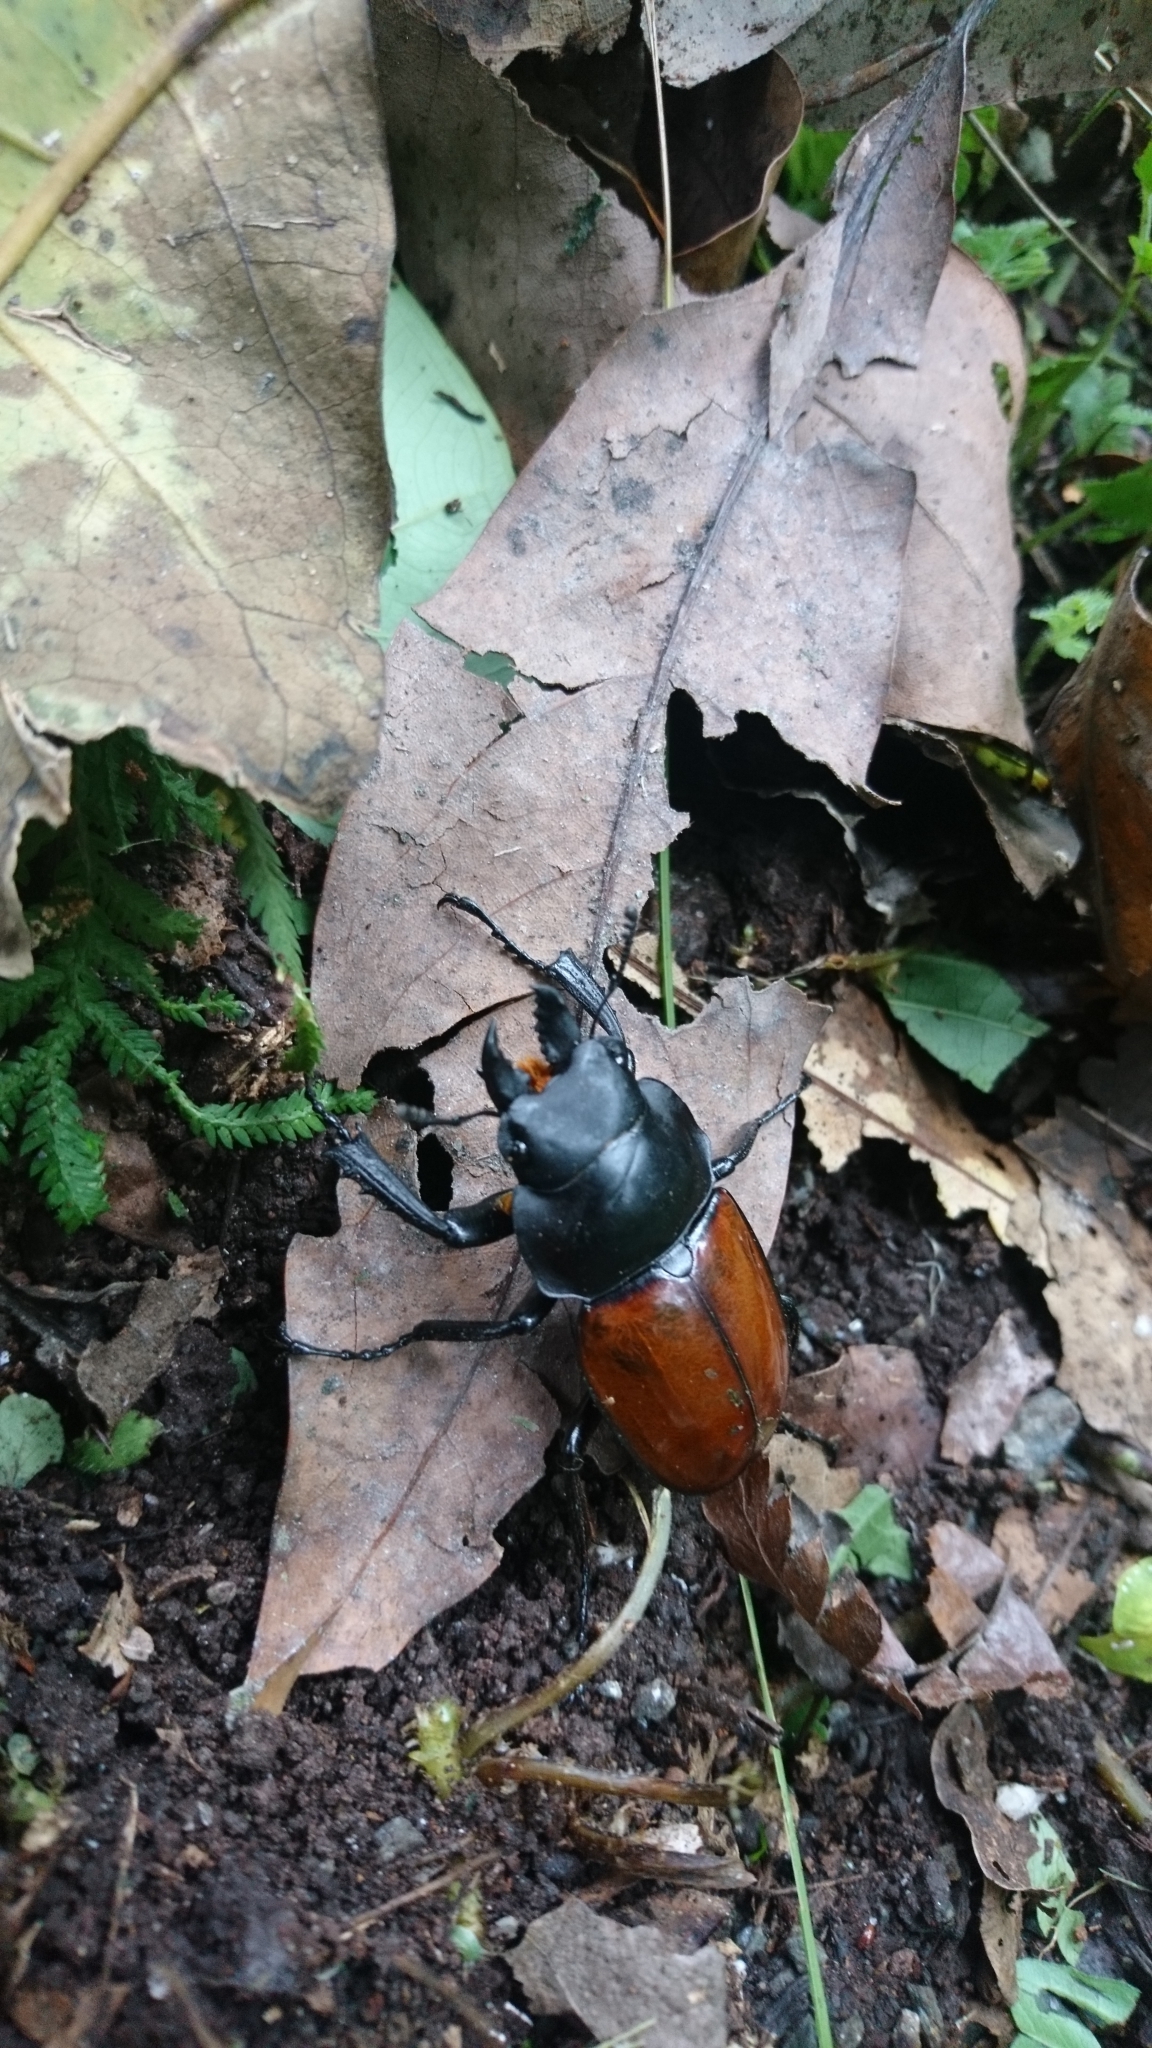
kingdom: Animalia
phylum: Arthropoda
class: Insecta
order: Coleoptera
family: Lucanidae
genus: Neolucanus
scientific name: Neolucanus swinhoei
